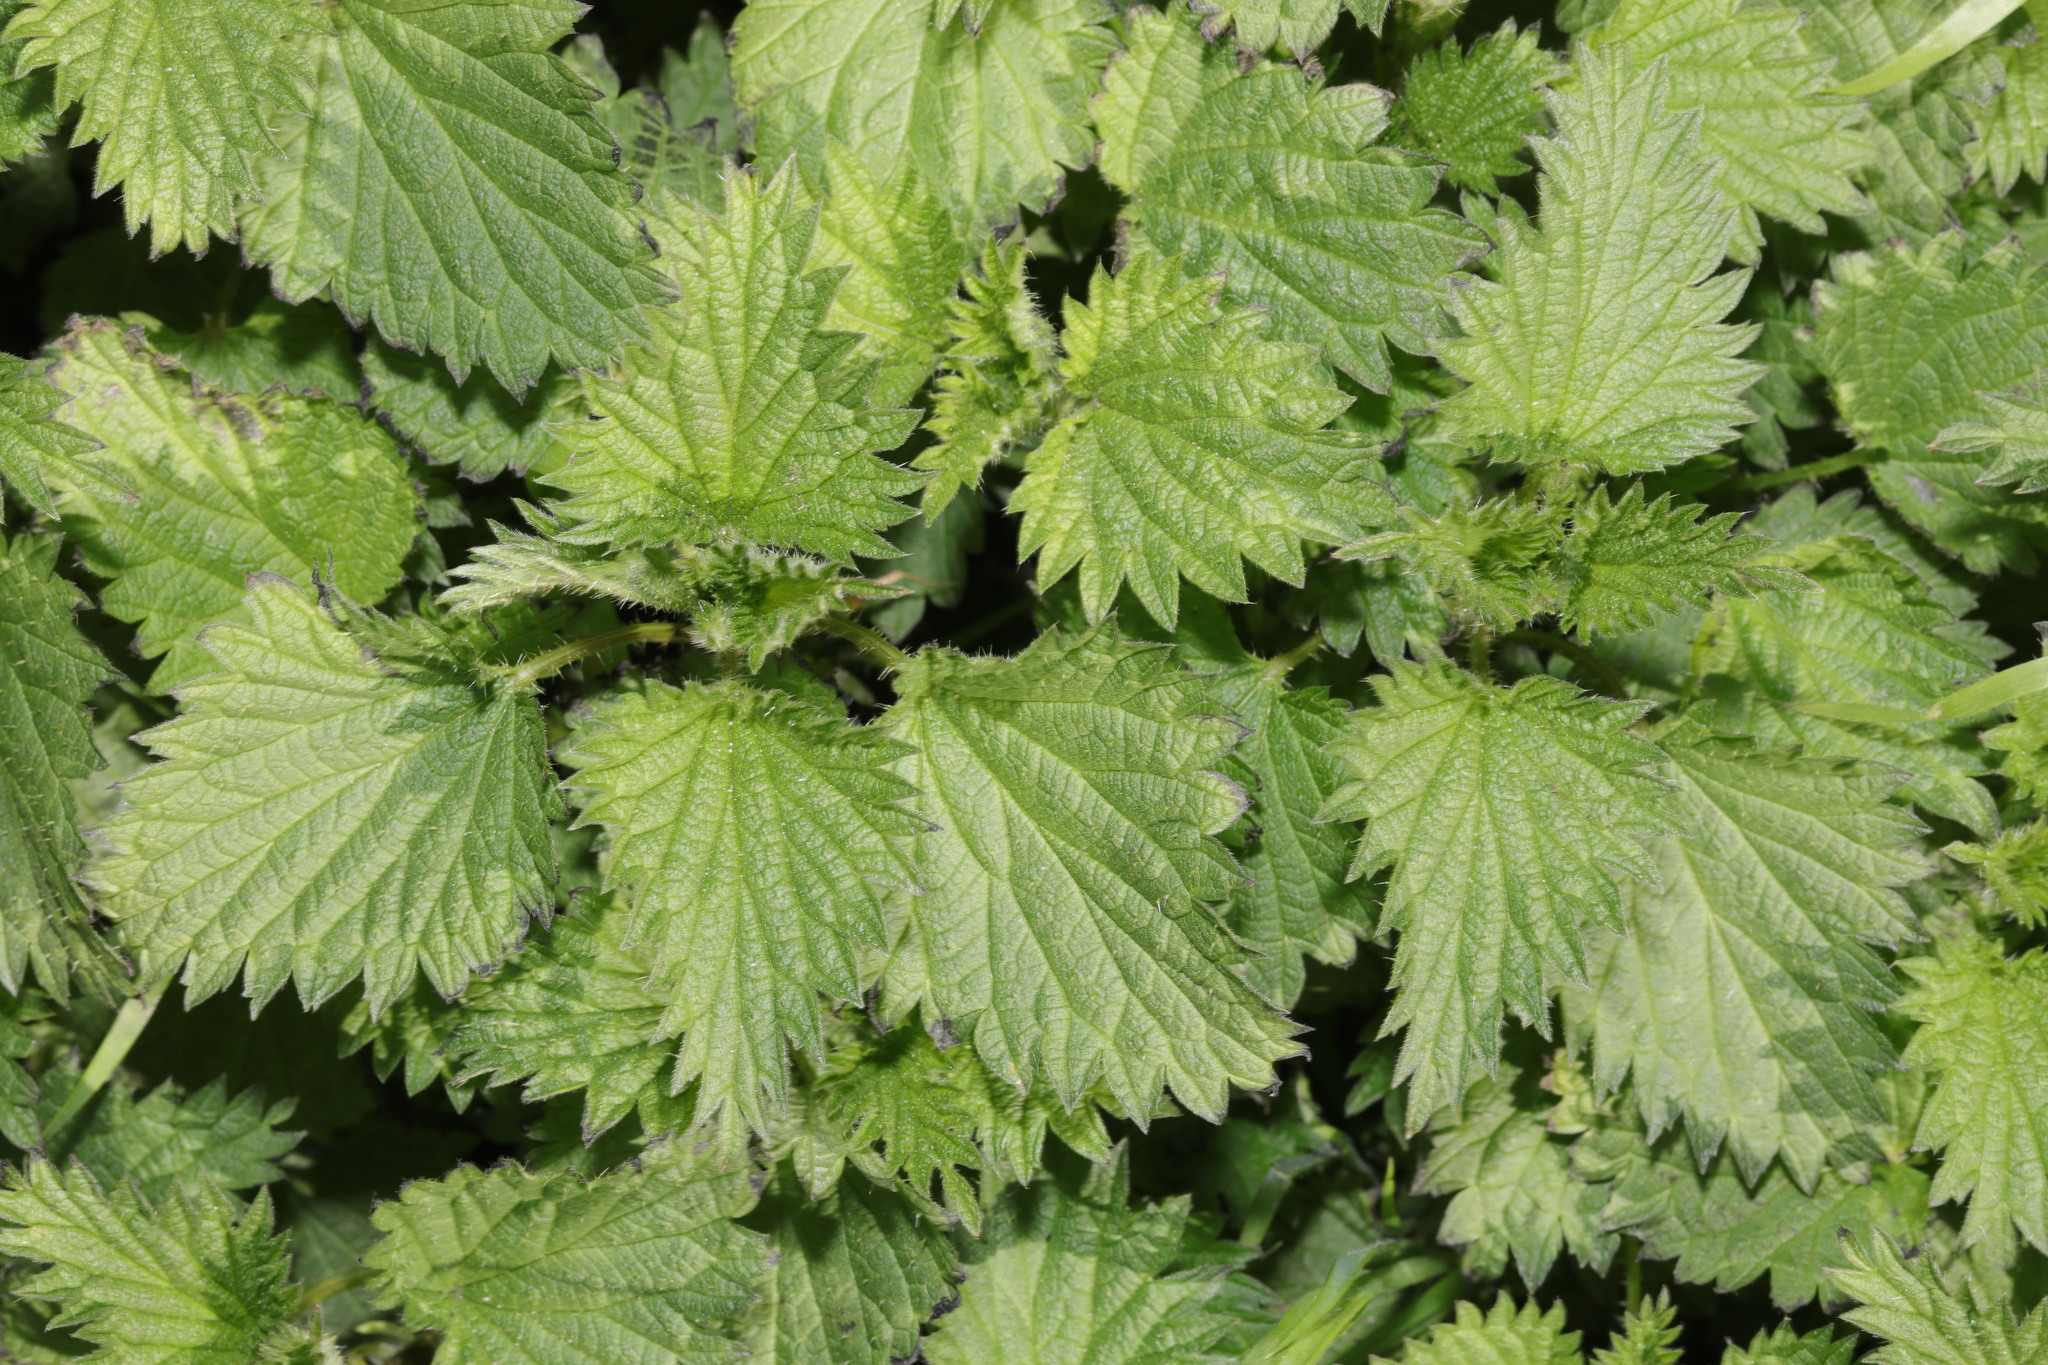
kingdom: Plantae
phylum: Tracheophyta
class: Magnoliopsida
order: Rosales
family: Urticaceae
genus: Urtica
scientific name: Urtica dioica
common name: Common nettle
